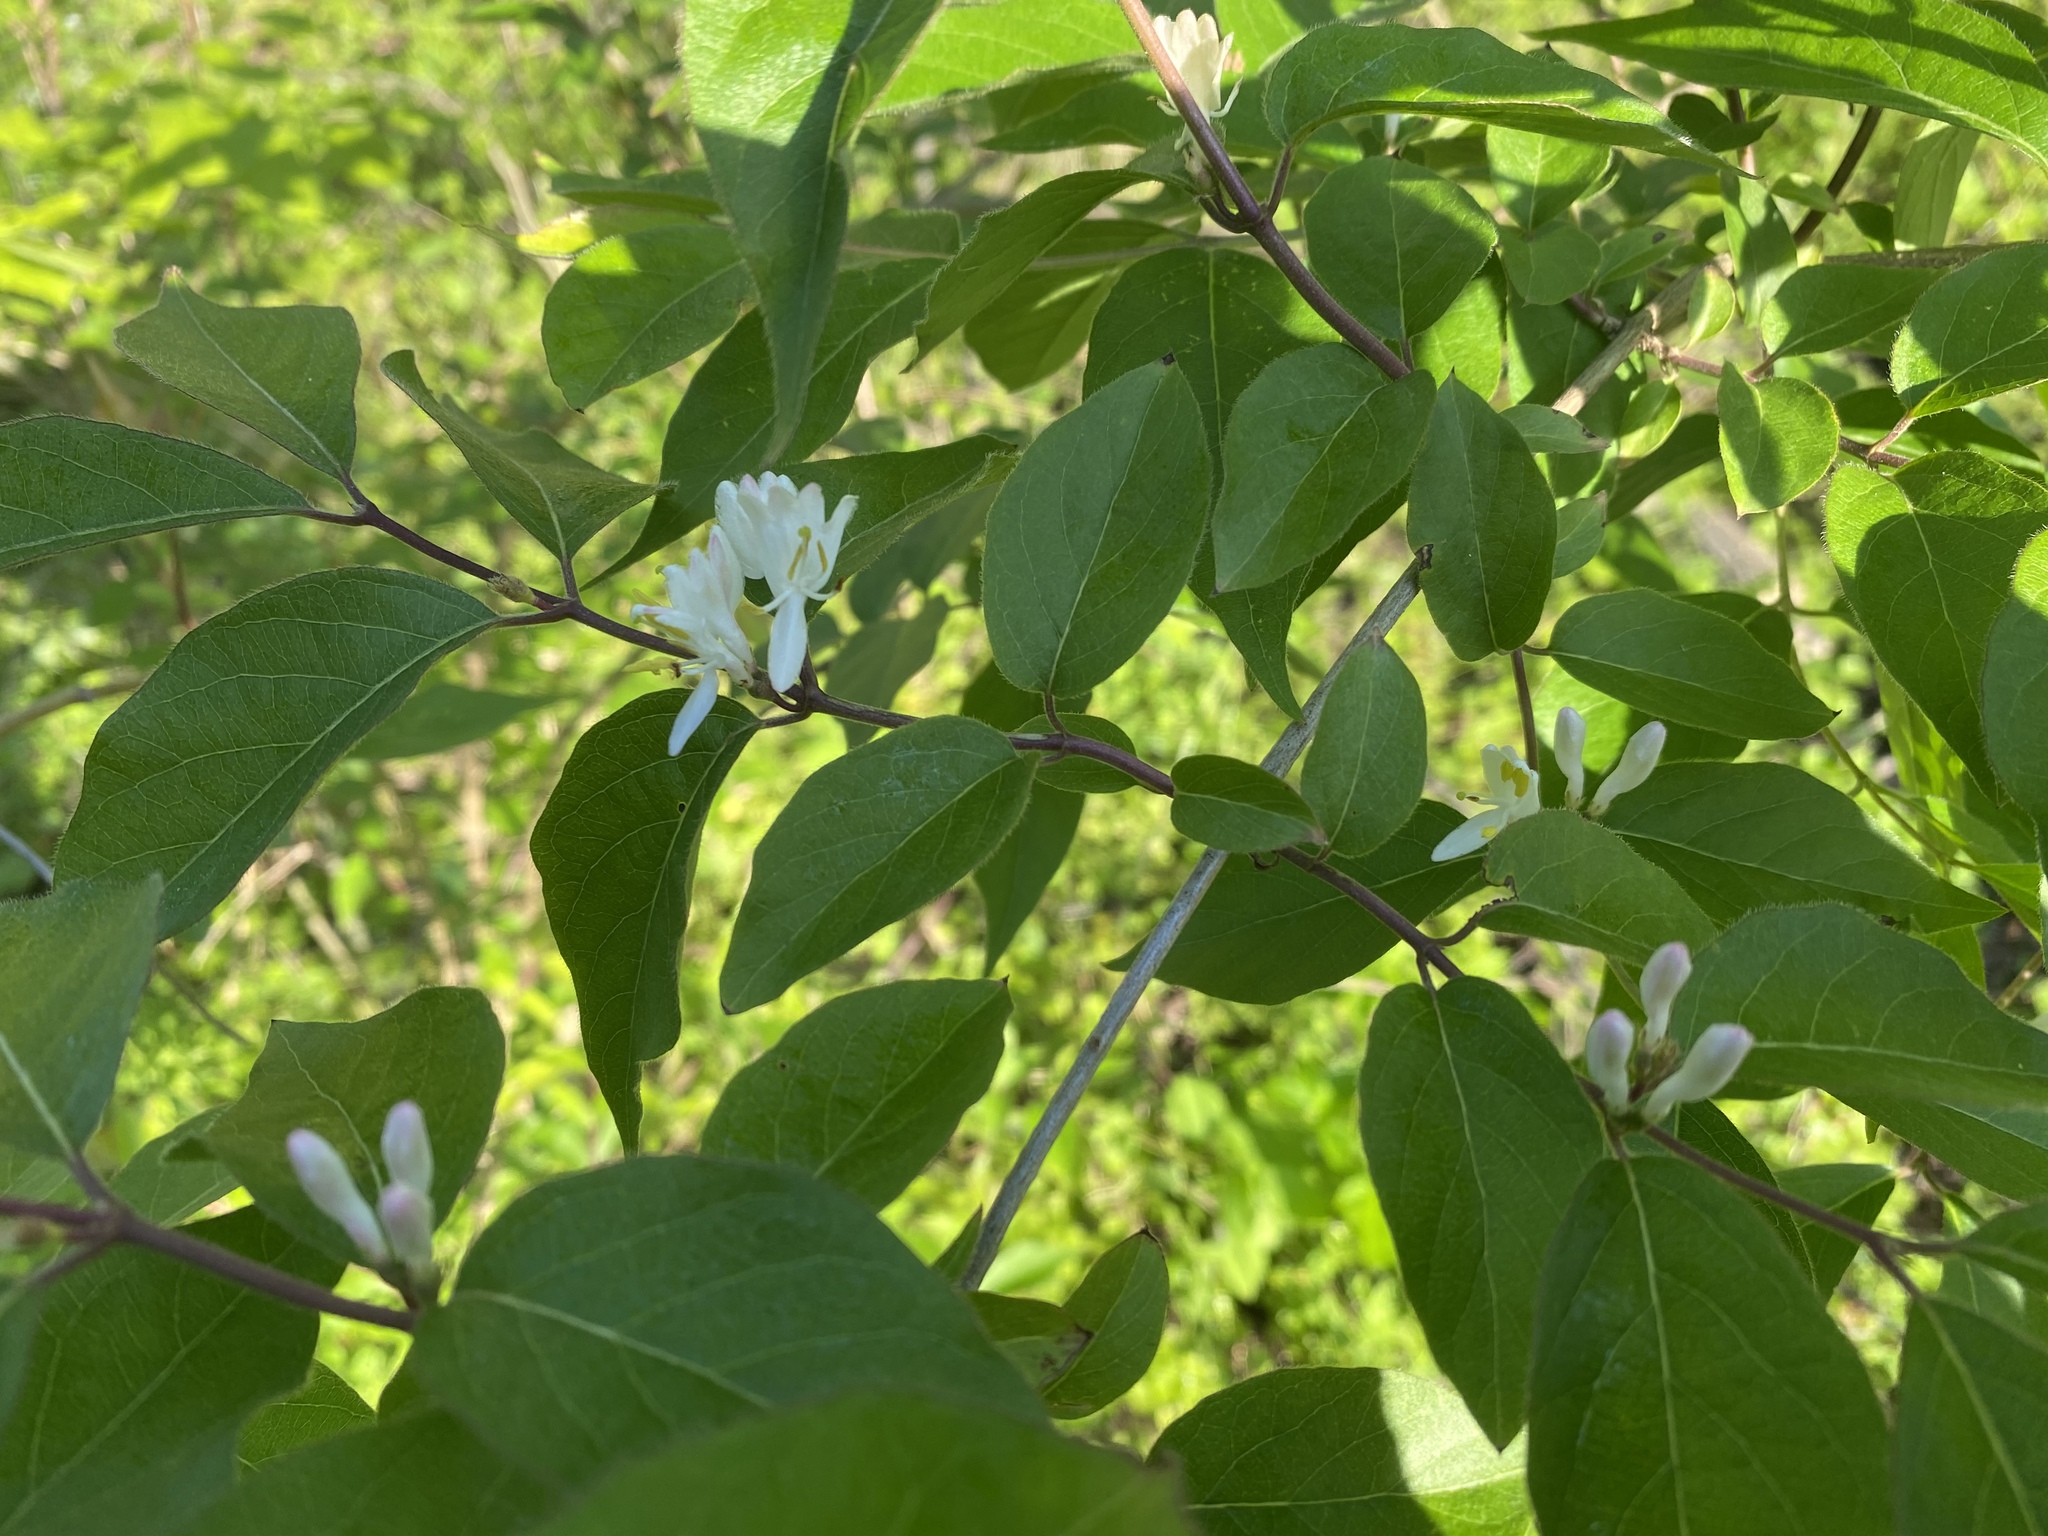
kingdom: Plantae
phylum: Tracheophyta
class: Magnoliopsida
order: Dipsacales
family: Caprifoliaceae
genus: Lonicera
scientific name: Lonicera maackii
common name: Amur honeysuckle
